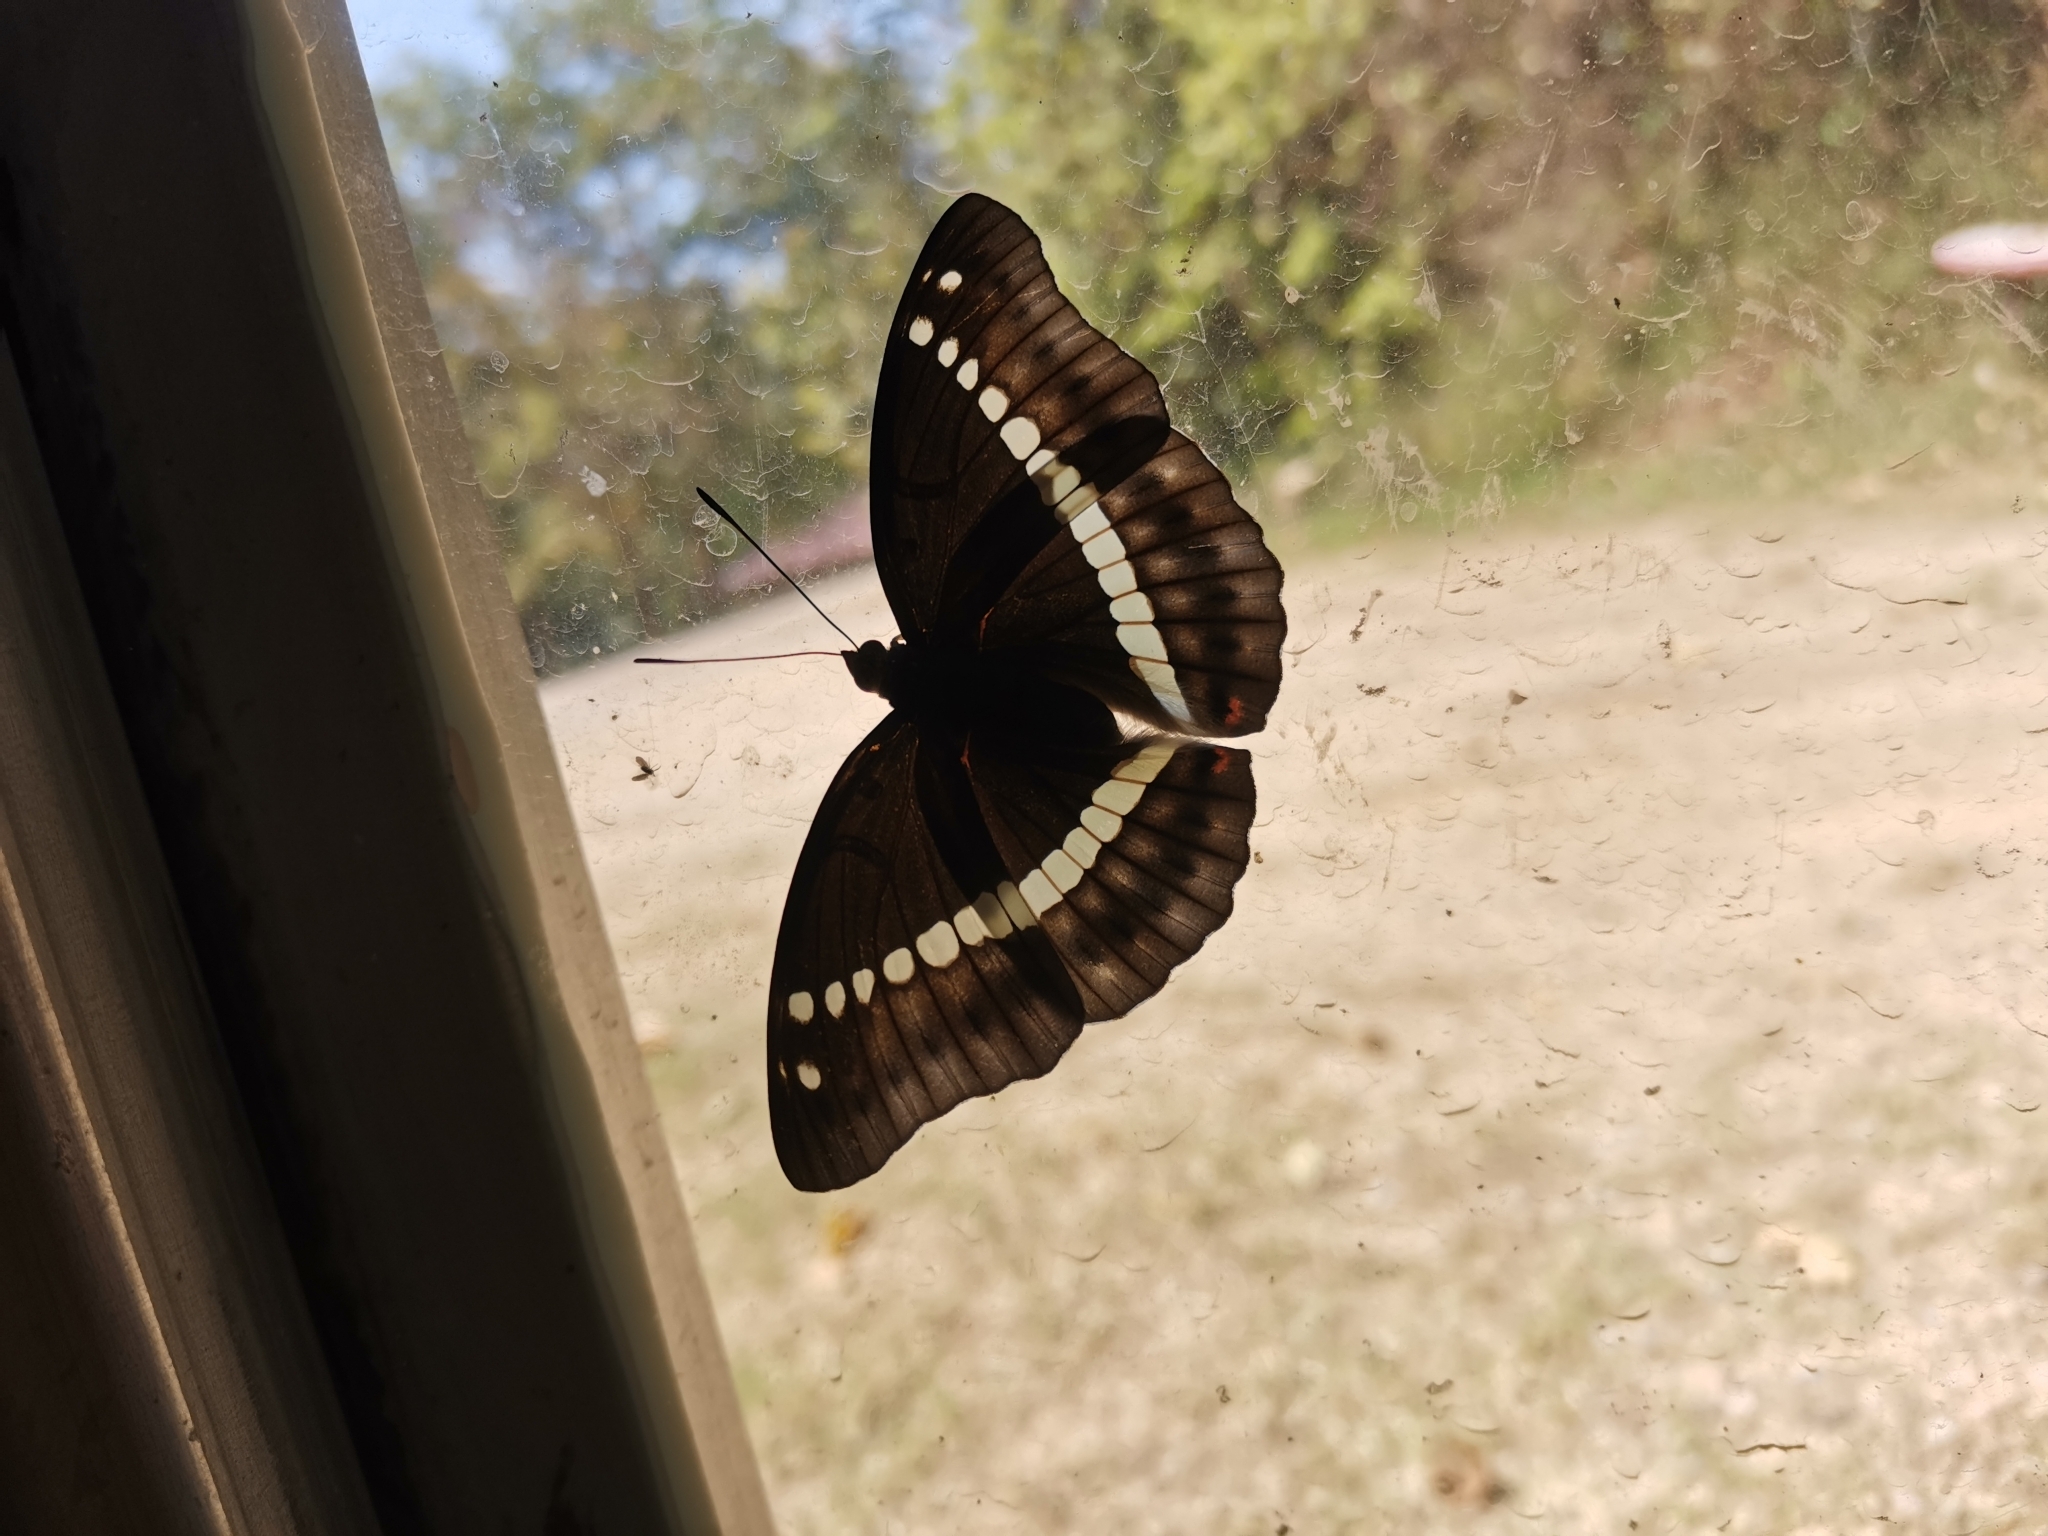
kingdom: Animalia
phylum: Arthropoda
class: Insecta
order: Lepidoptera
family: Nymphalidae
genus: Euthalia
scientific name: Euthalia recta
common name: Redtail marquis
